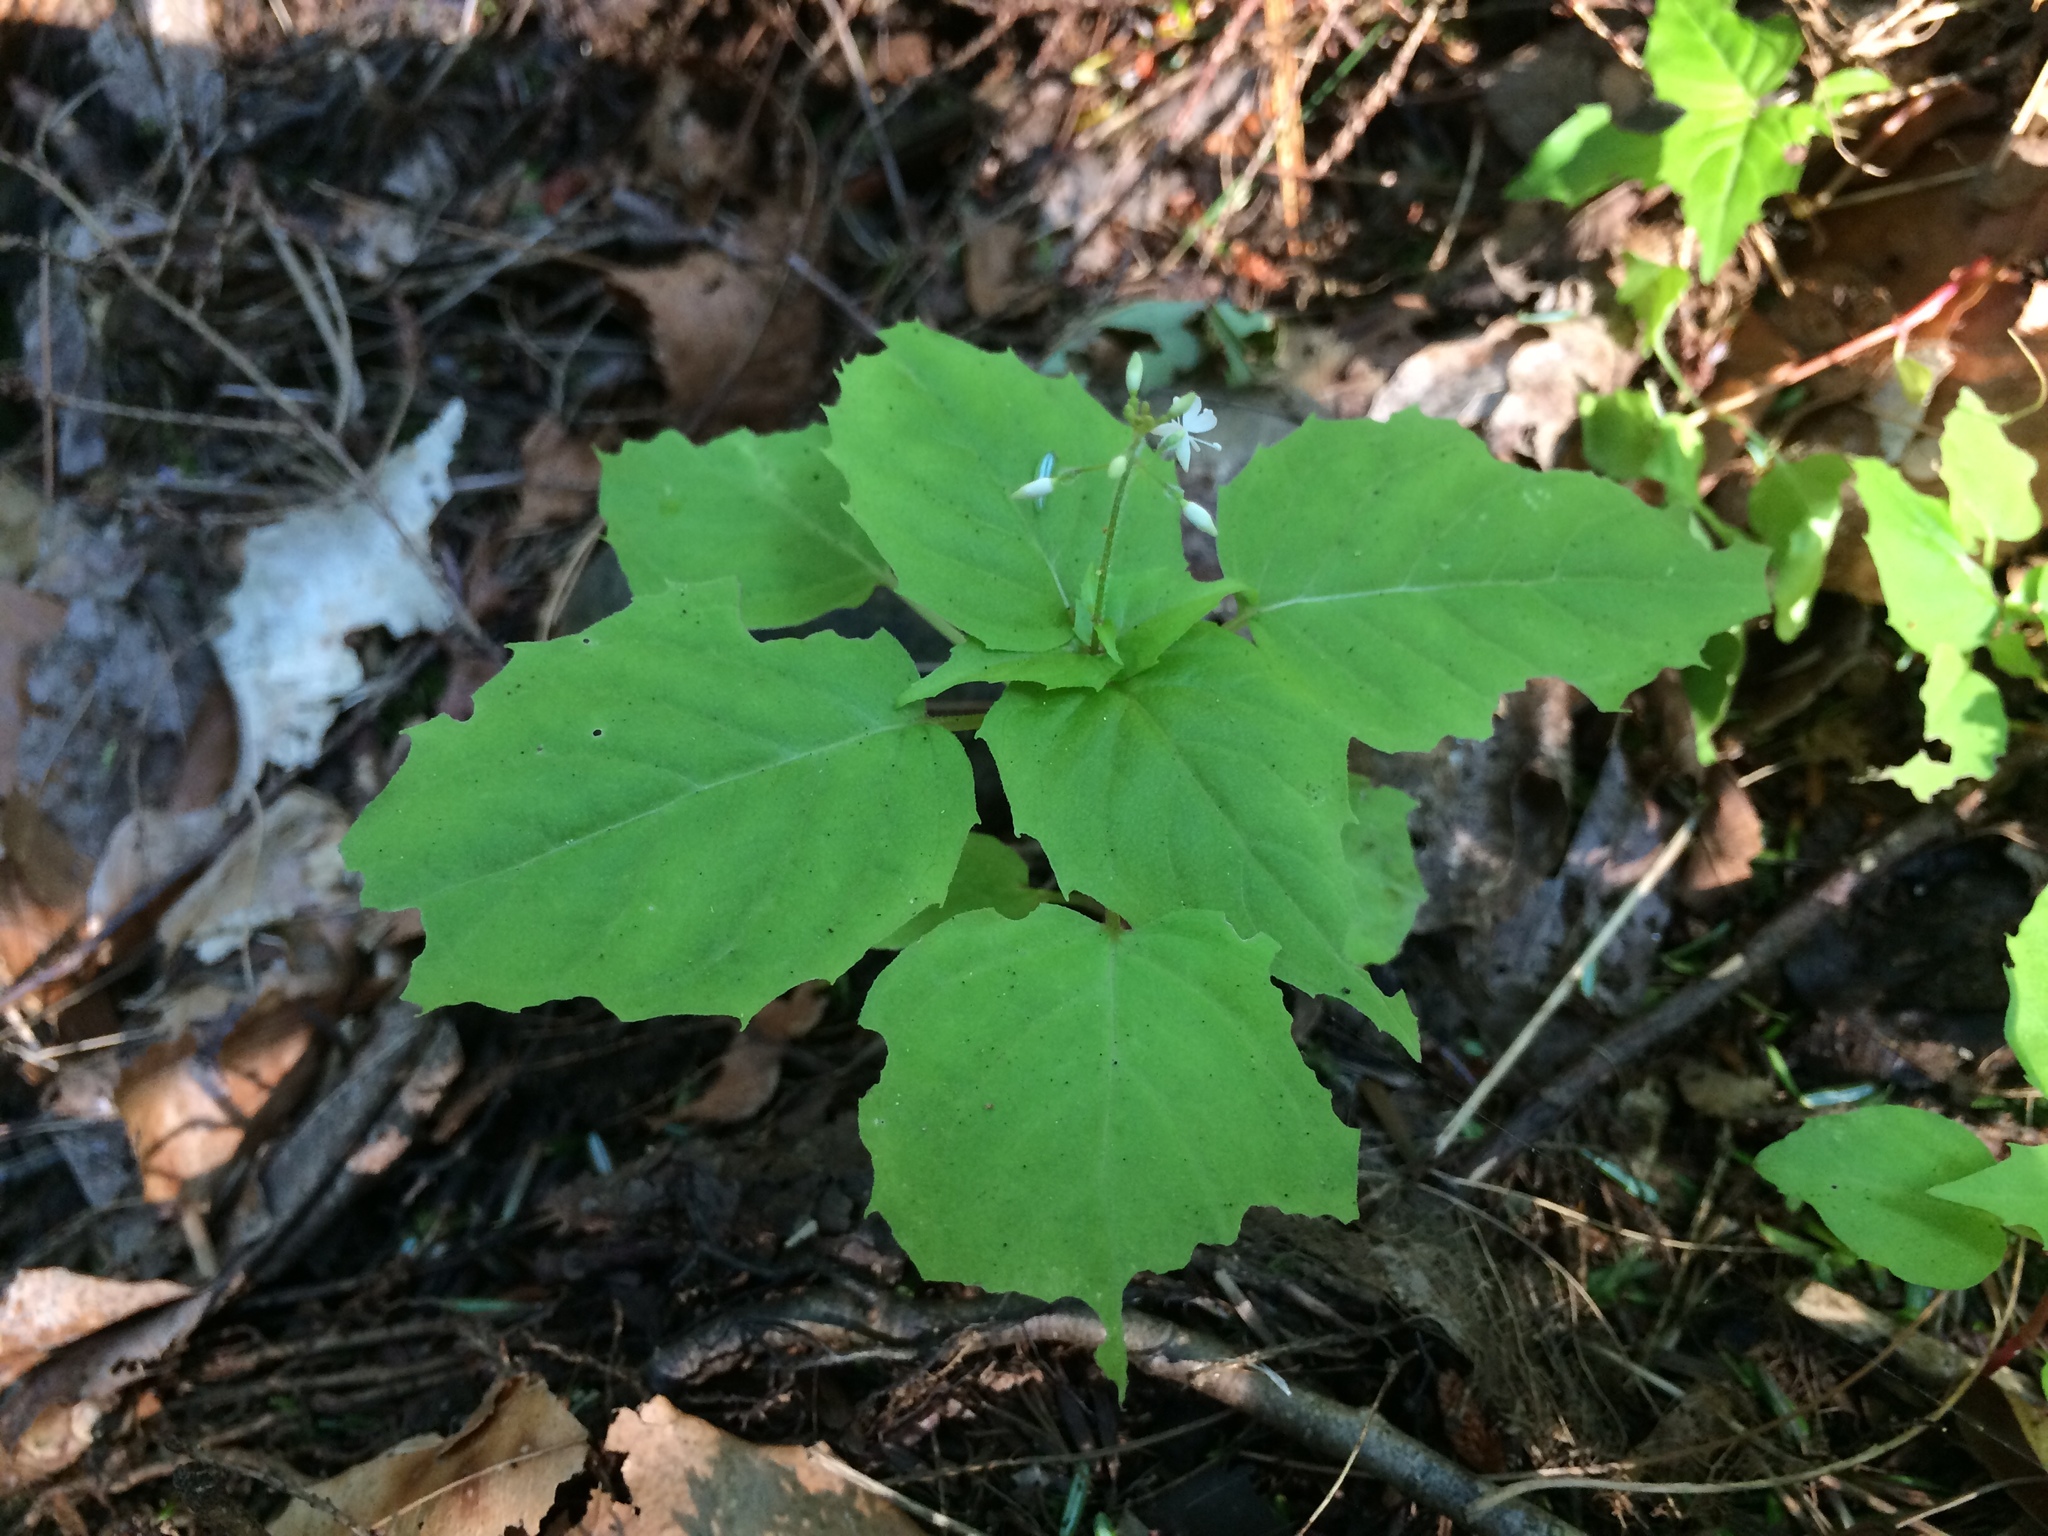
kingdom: Plantae
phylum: Tracheophyta
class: Magnoliopsida
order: Myrtales
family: Onagraceae
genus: Circaea
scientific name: Circaea alpina
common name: Alpine enchanter's-nightshade
